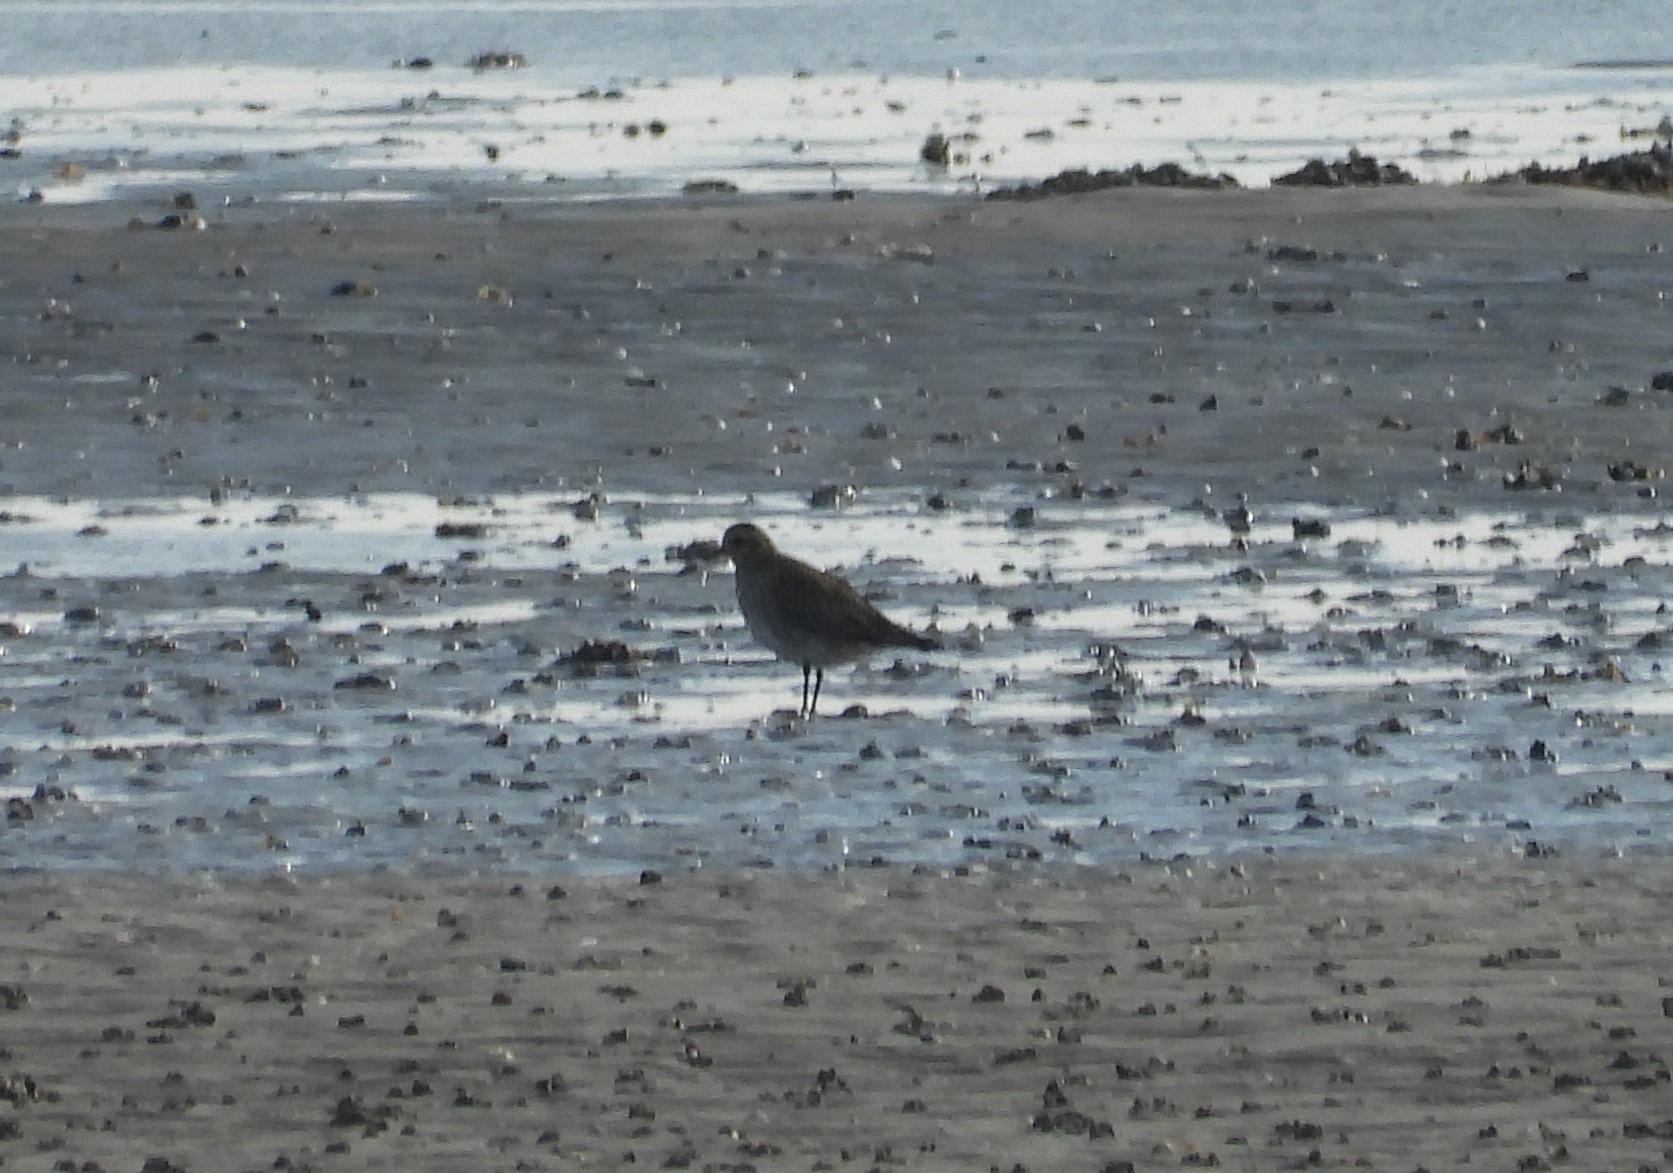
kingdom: Animalia
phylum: Chordata
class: Aves
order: Charadriiformes
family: Charadriidae
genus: Pluvialis
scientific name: Pluvialis apricaria
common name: European golden plover
